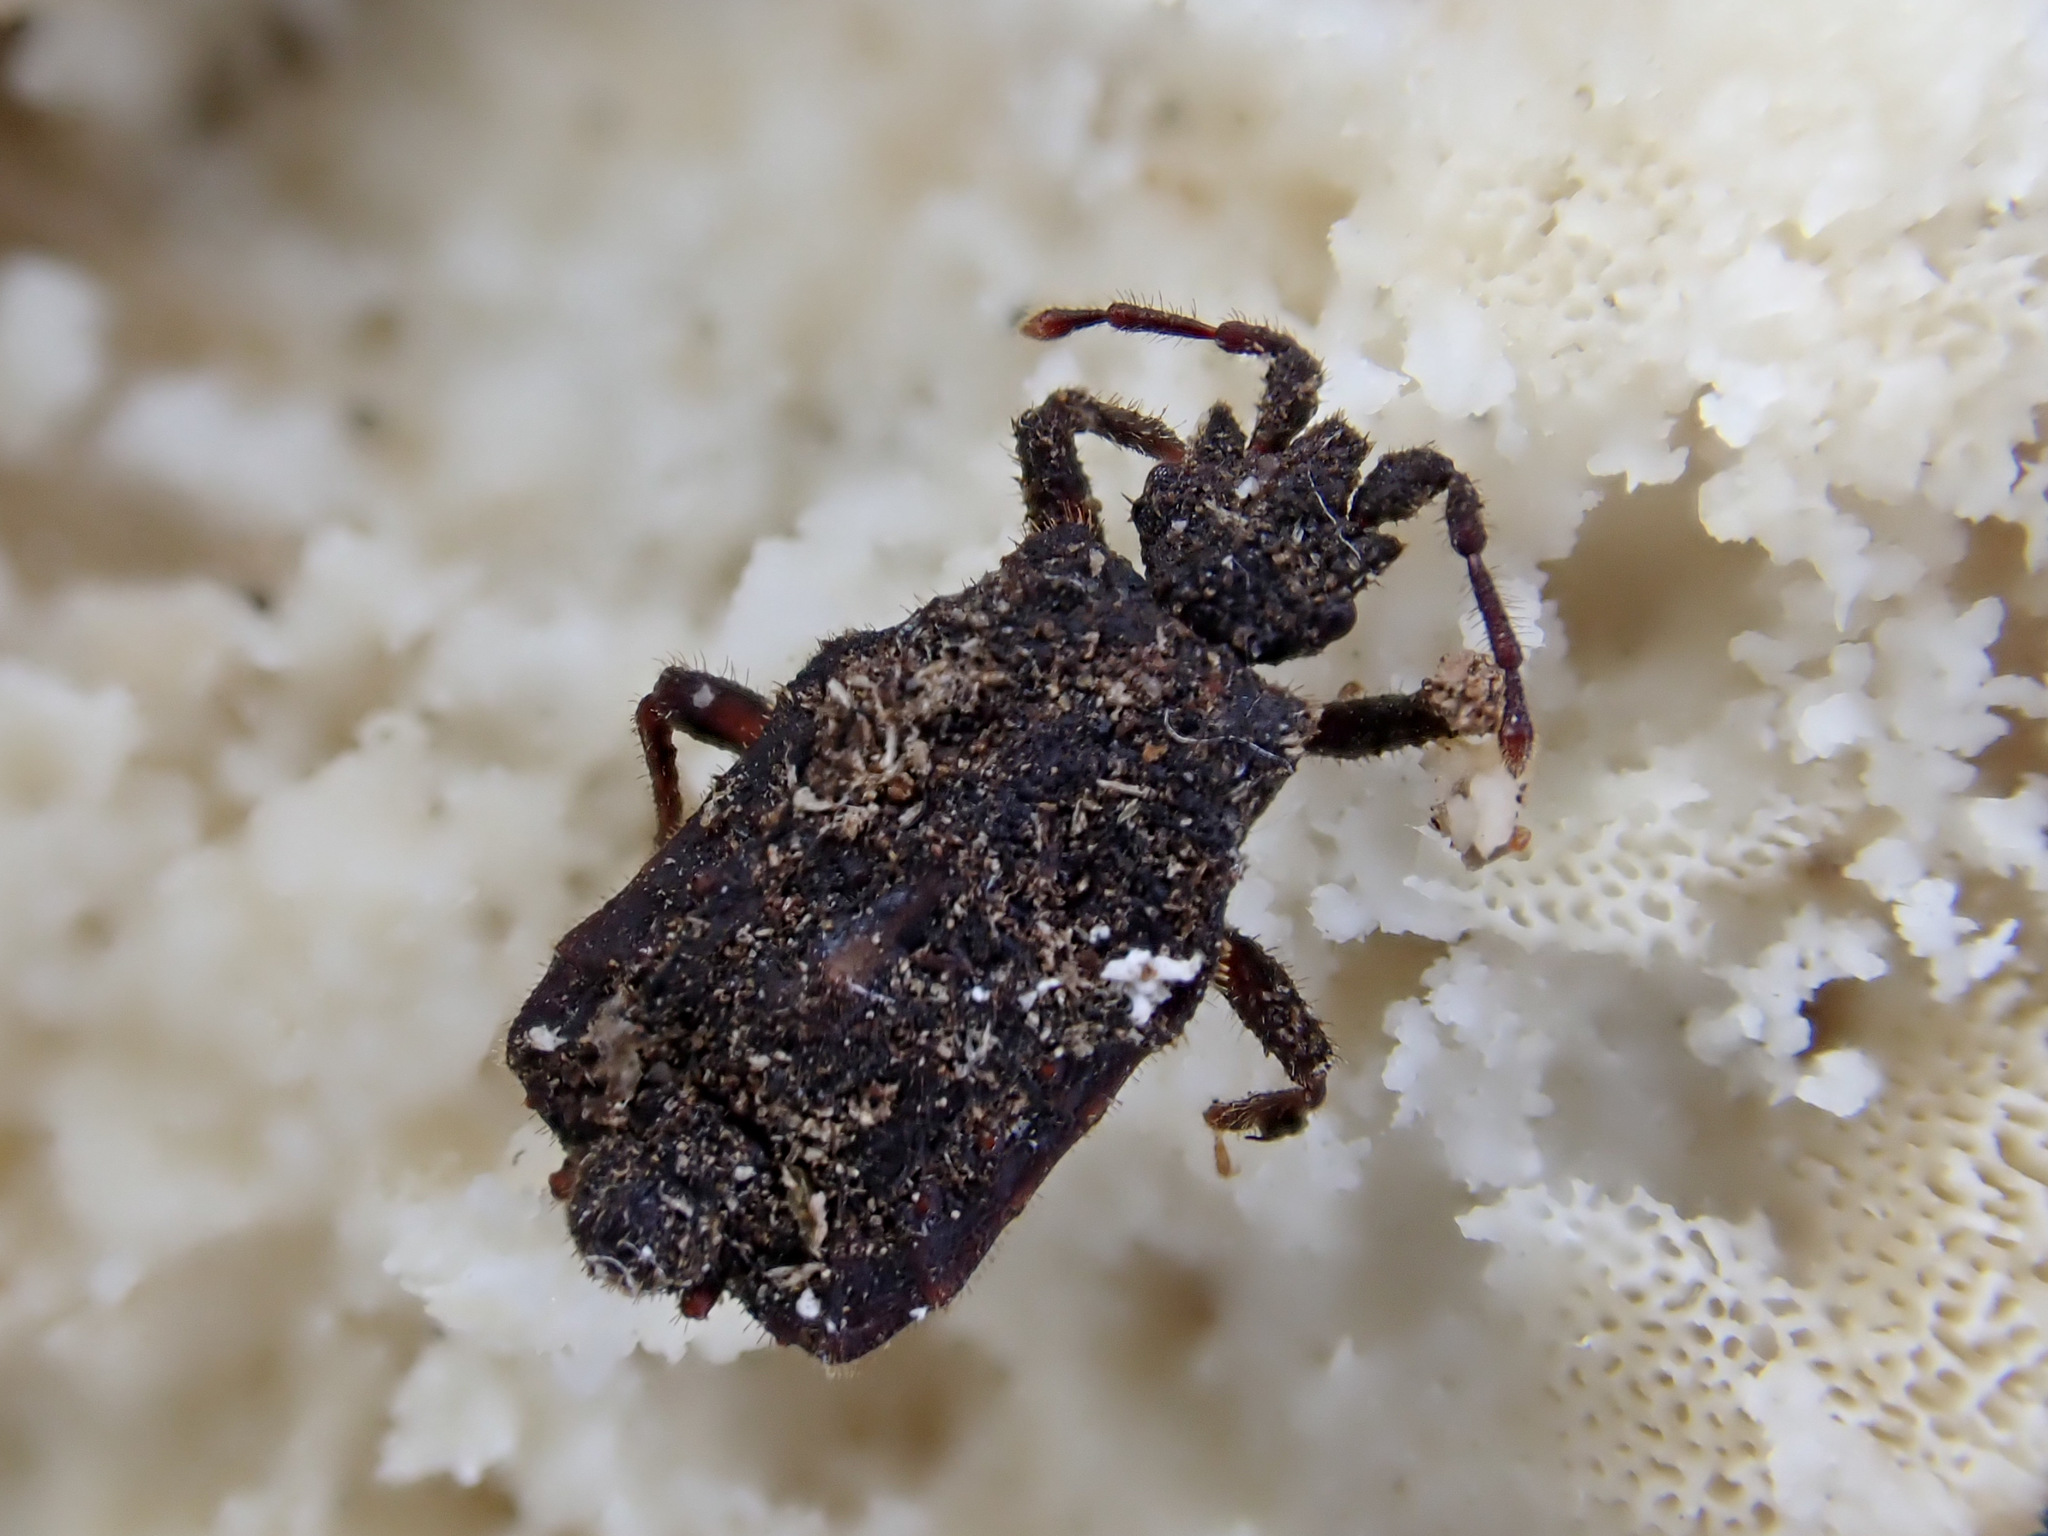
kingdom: Animalia
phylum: Arthropoda
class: Insecta
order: Hemiptera
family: Aradidae
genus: Woodwardiessa
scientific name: Woodwardiessa quadrata
